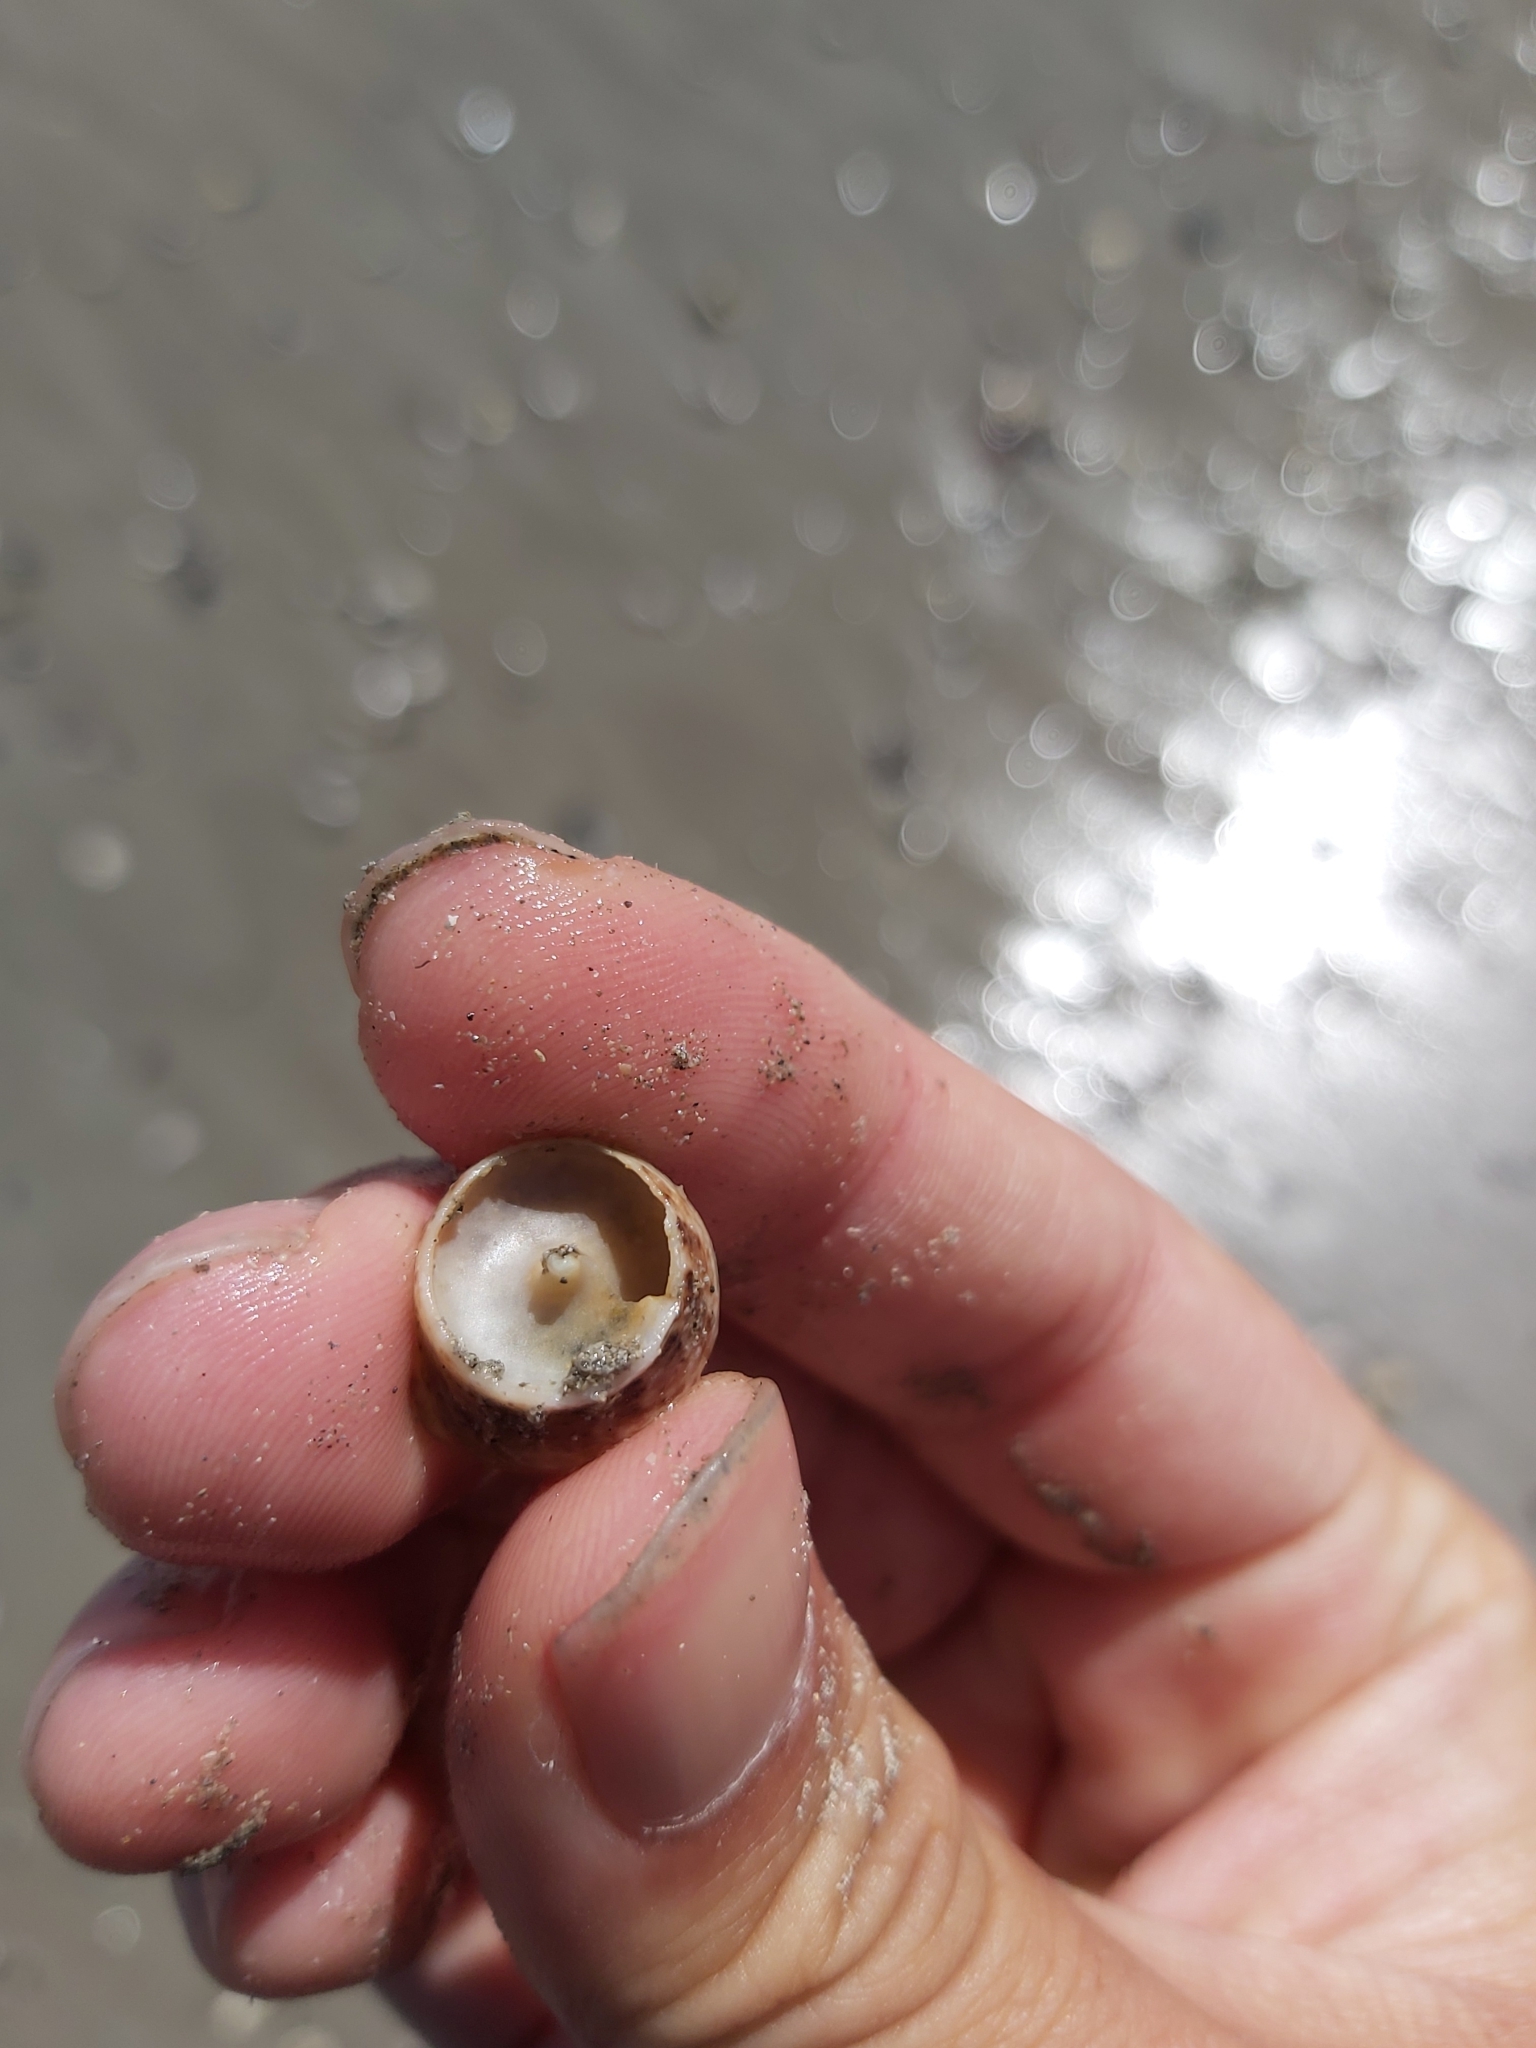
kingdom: Animalia
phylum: Mollusca
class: Gastropoda
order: Trochida
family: Trochidae
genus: Calthalotia
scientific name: Calthalotia fragum
